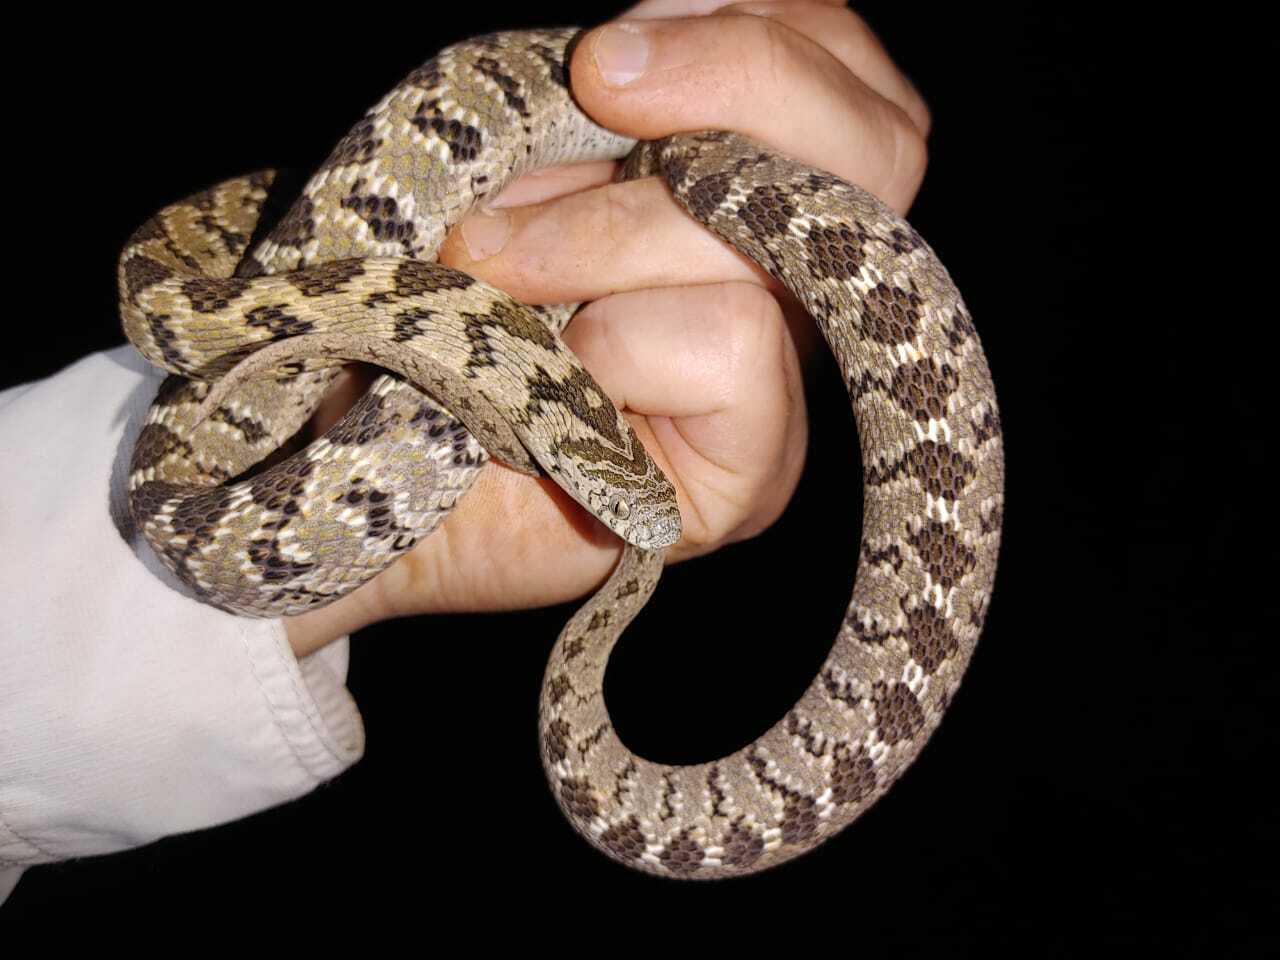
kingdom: Animalia
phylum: Chordata
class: Squamata
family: Colubridae
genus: Dasypeltis
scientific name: Dasypeltis scabra
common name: Common egg eater
